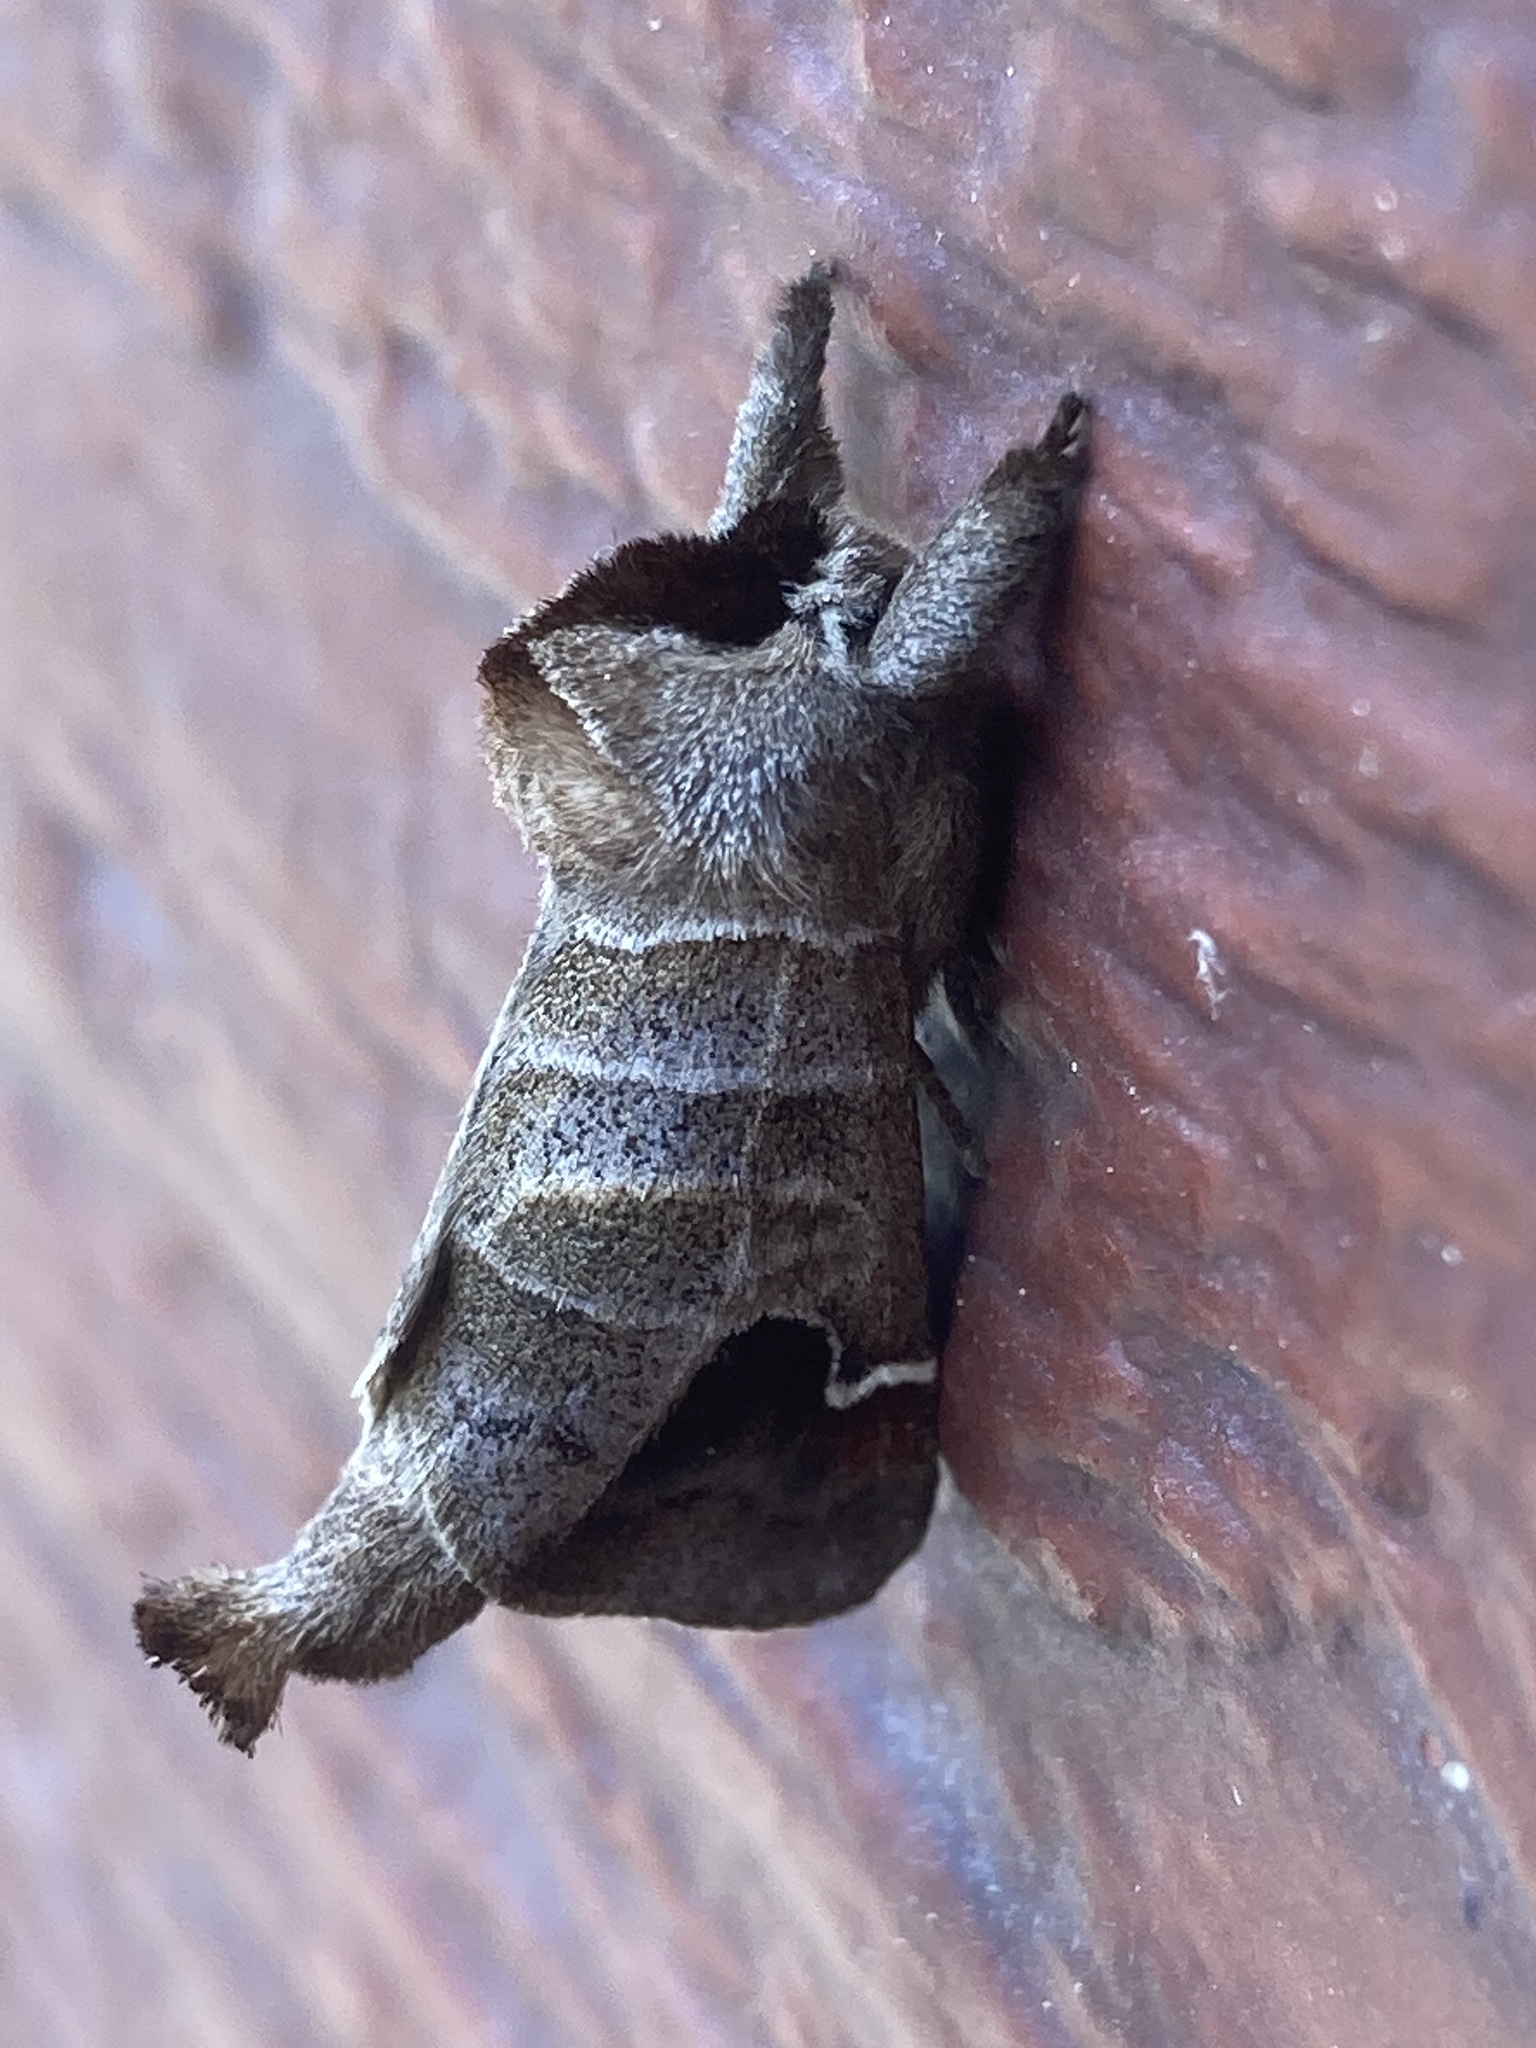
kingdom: Animalia
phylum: Arthropoda
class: Insecta
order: Lepidoptera
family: Notodontidae
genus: Clostera
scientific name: Clostera albosigma
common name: Sigmoid prominent
